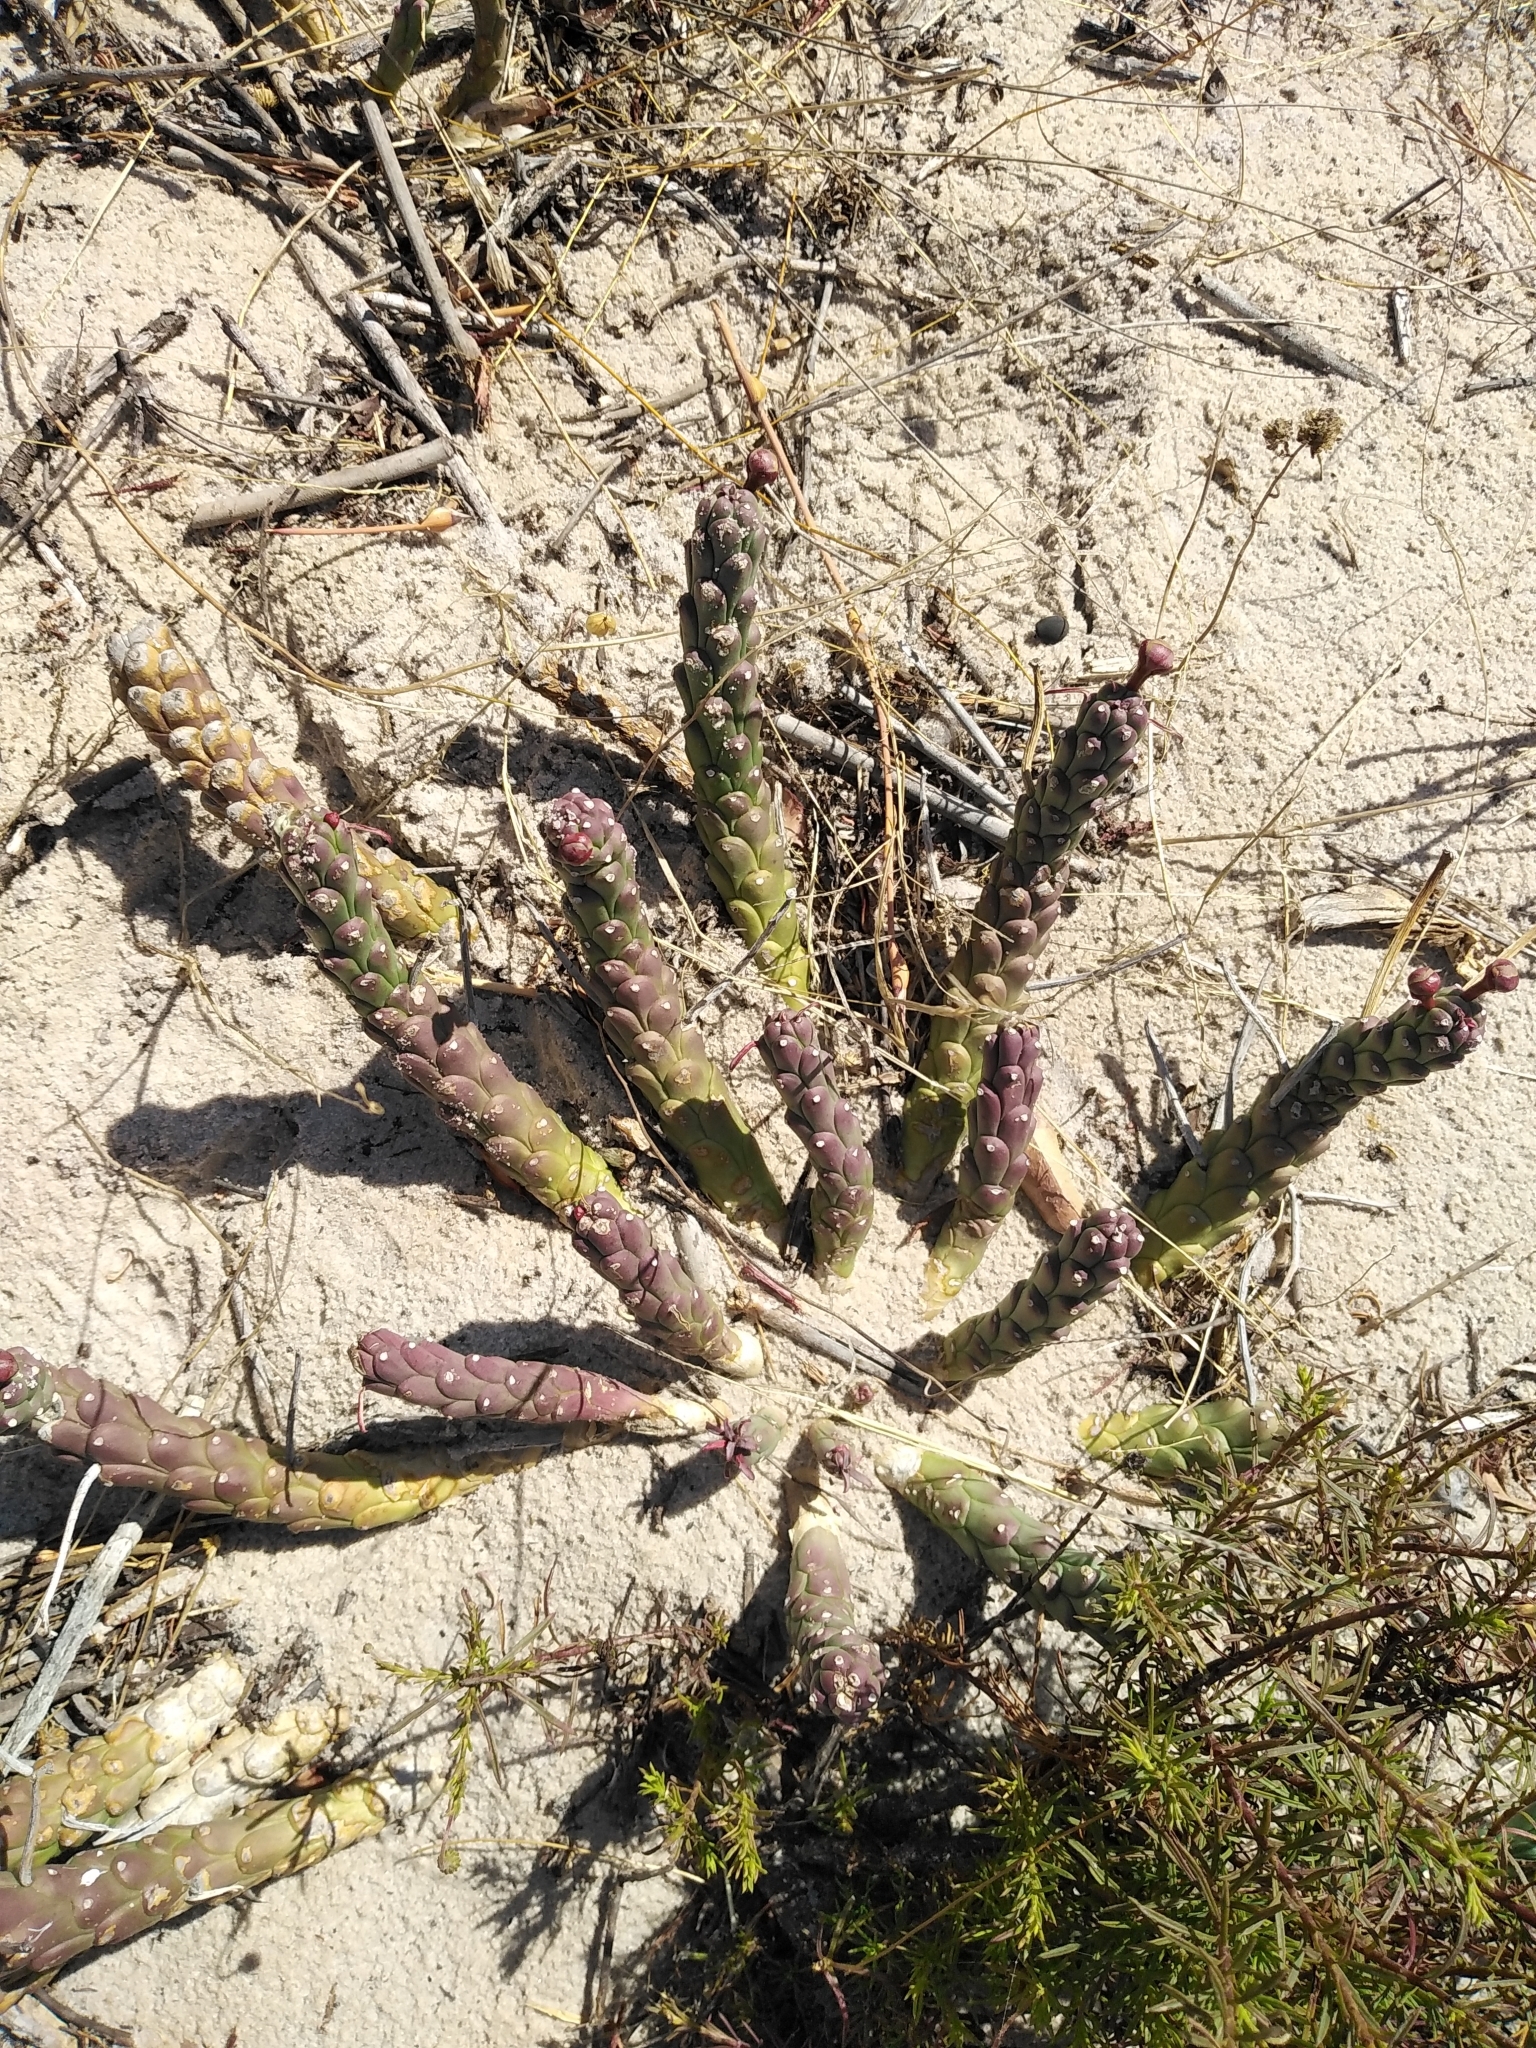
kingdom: Plantae
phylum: Tracheophyta
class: Magnoliopsida
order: Malpighiales
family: Euphorbiaceae
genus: Euphorbia
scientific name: Euphorbia caput-medusae
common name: Medusa's-head
